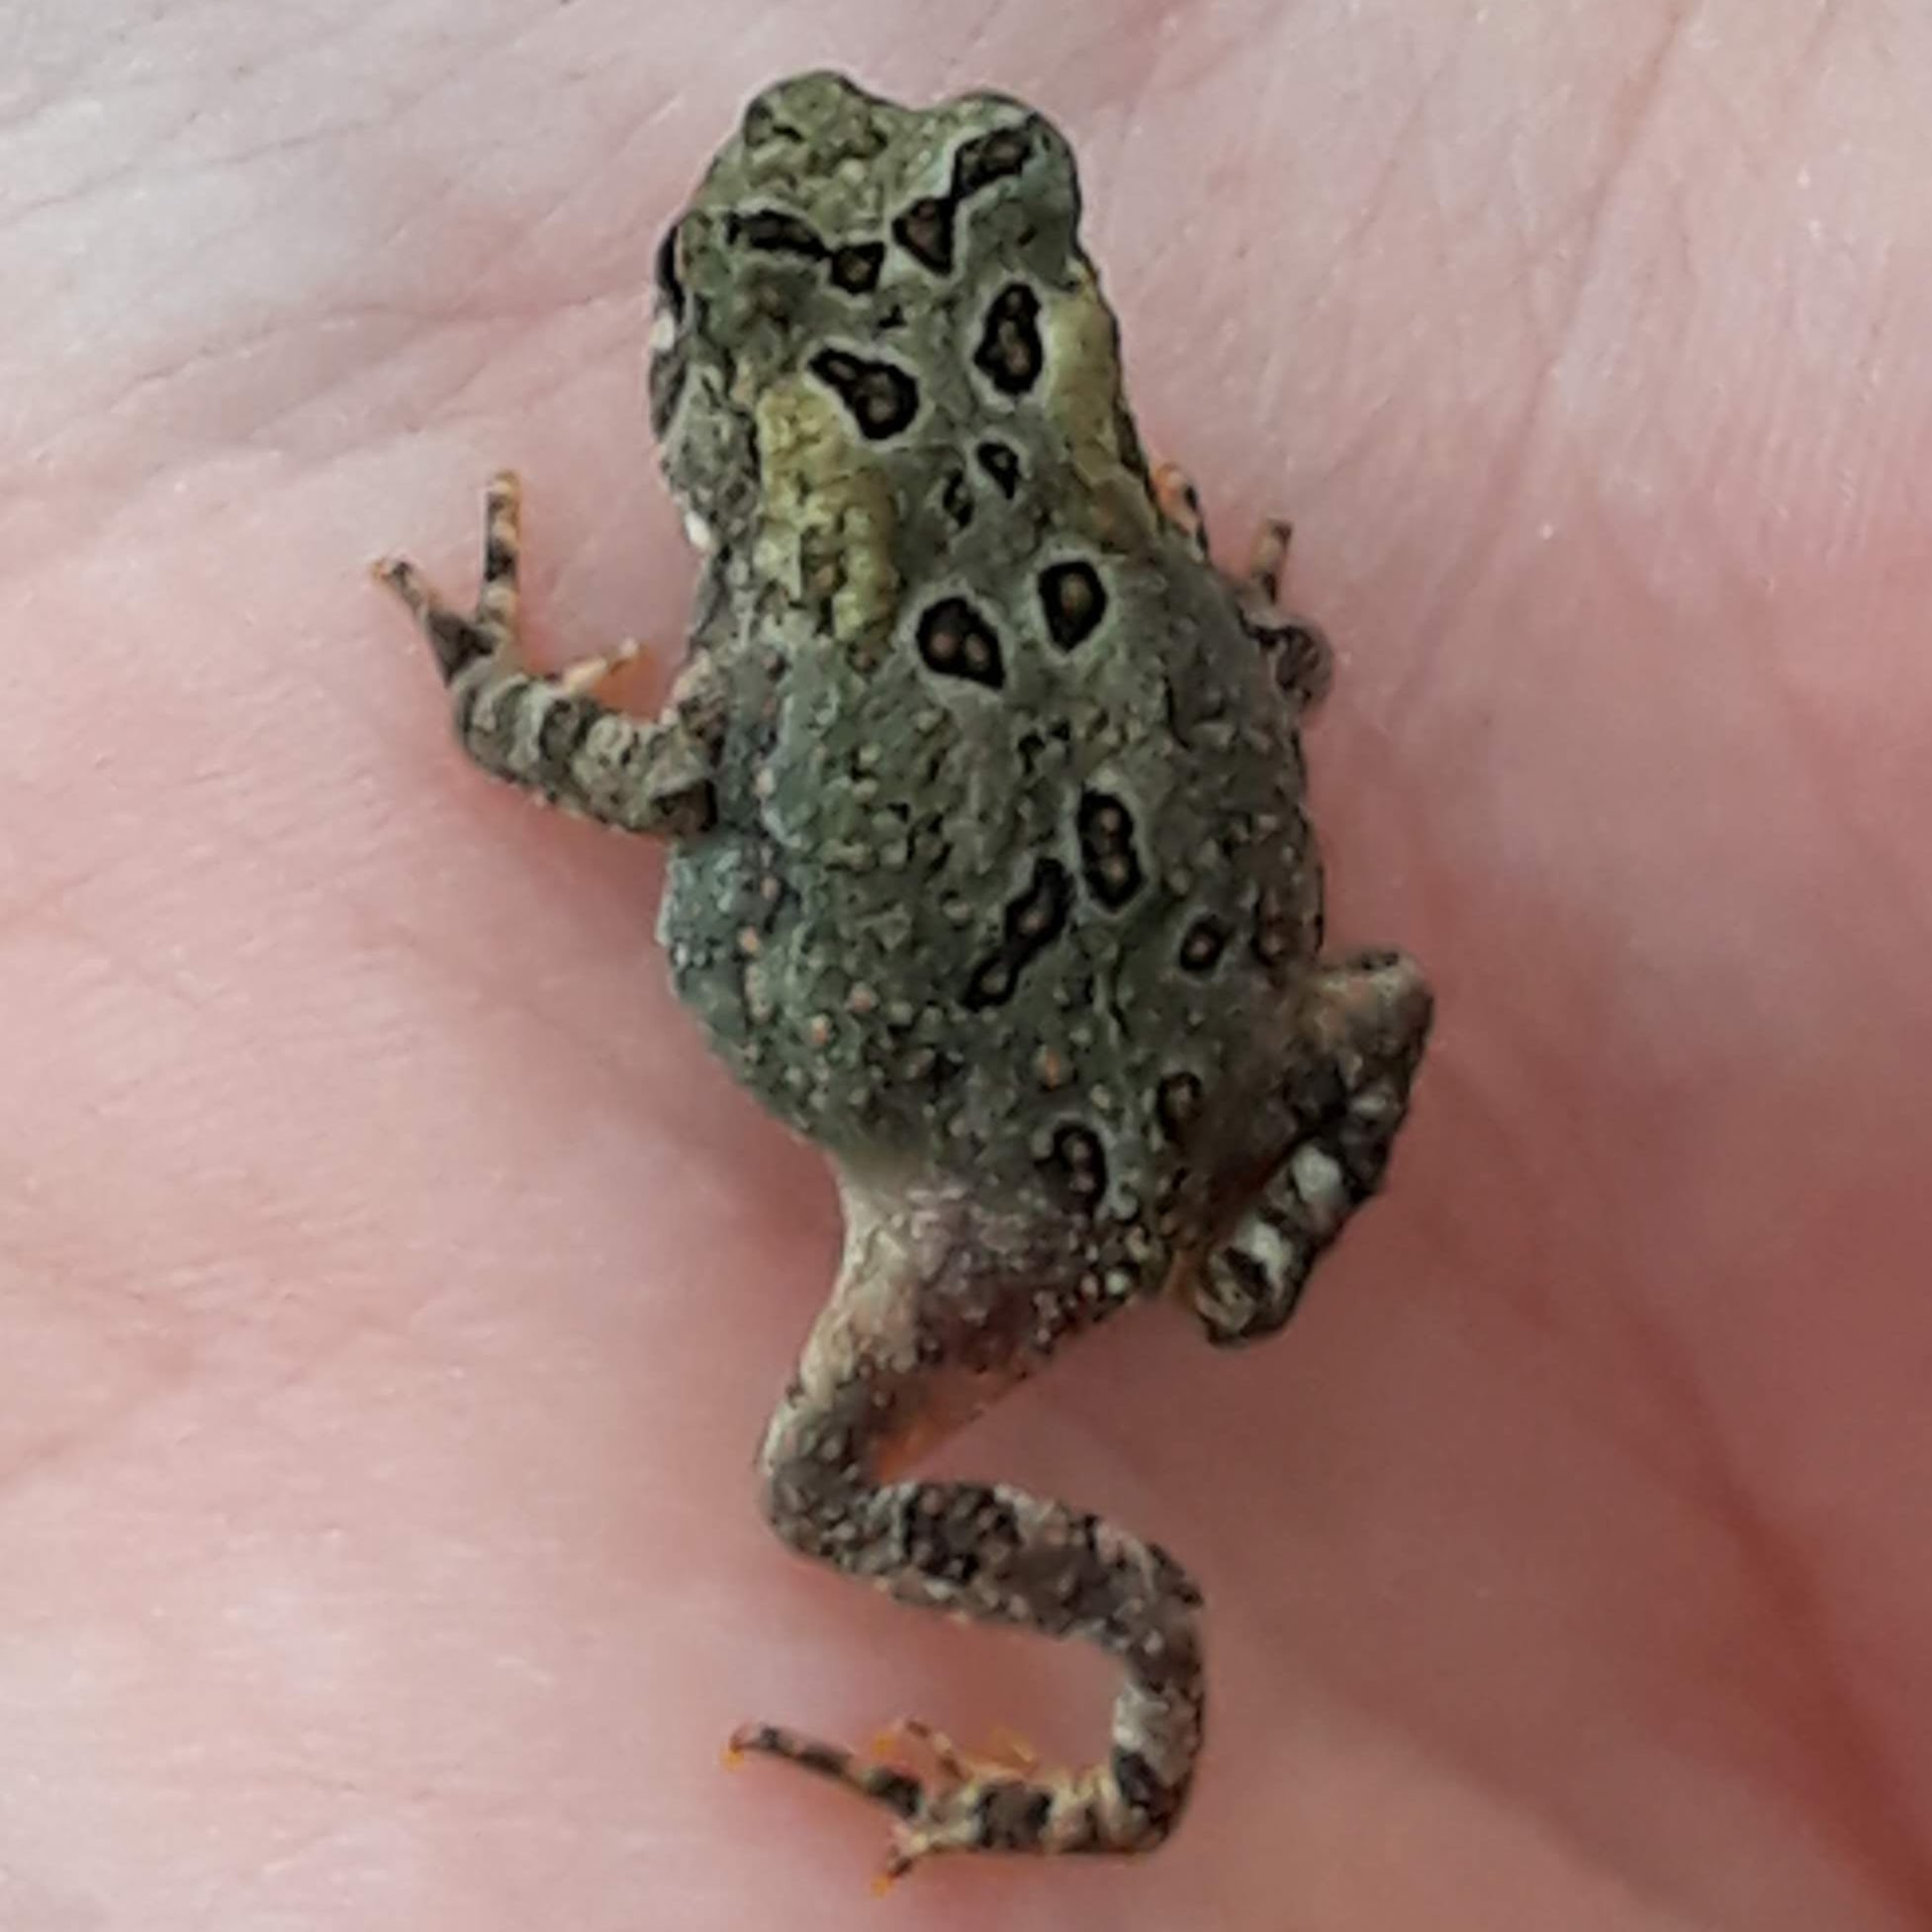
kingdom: Animalia
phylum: Chordata
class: Amphibia
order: Anura
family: Bufonidae
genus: Anaxyrus
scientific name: Anaxyrus americanus
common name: American toad
